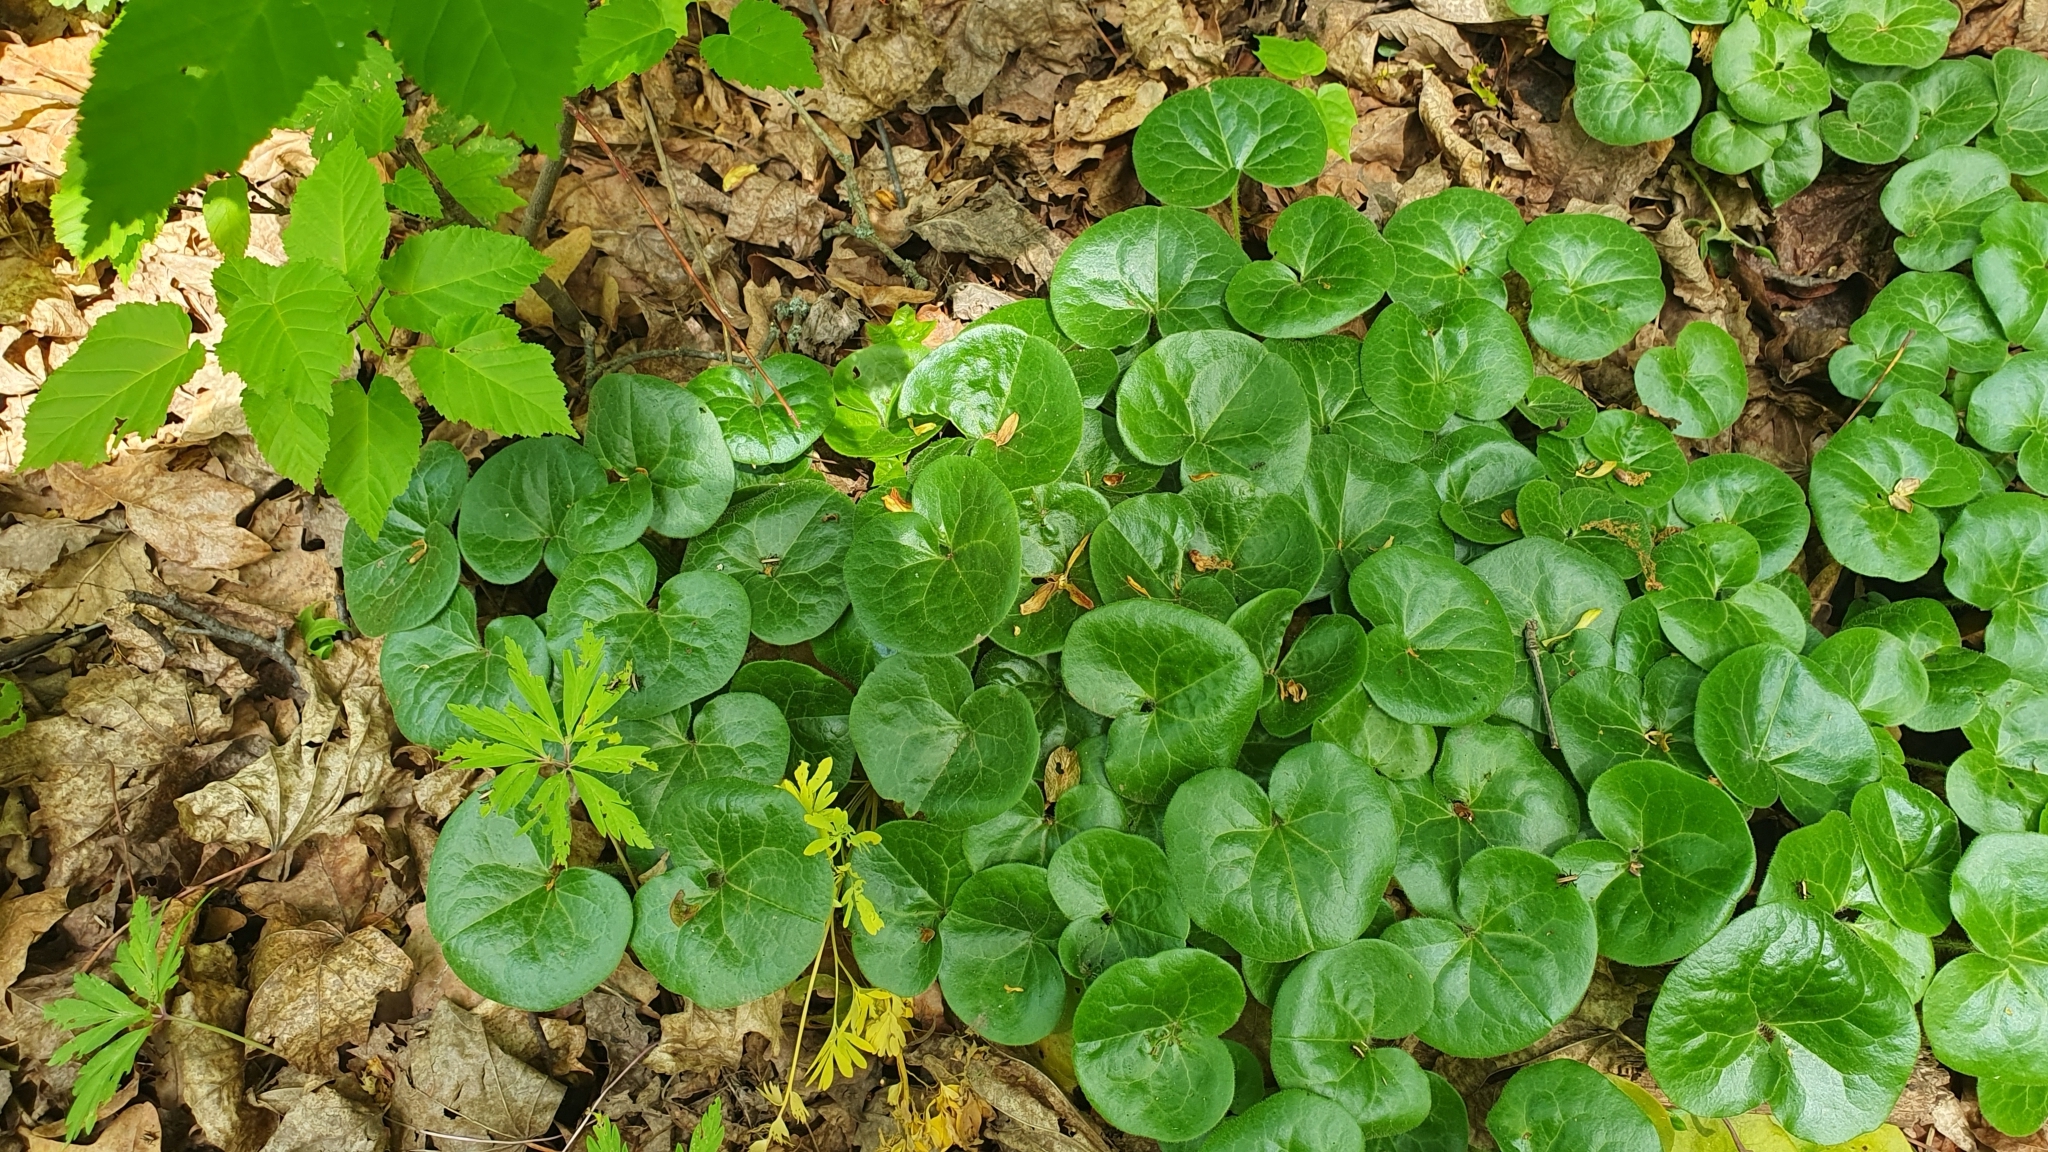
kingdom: Plantae
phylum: Tracheophyta
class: Magnoliopsida
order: Piperales
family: Aristolochiaceae
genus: Asarum
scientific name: Asarum europaeum
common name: Asarabacca
